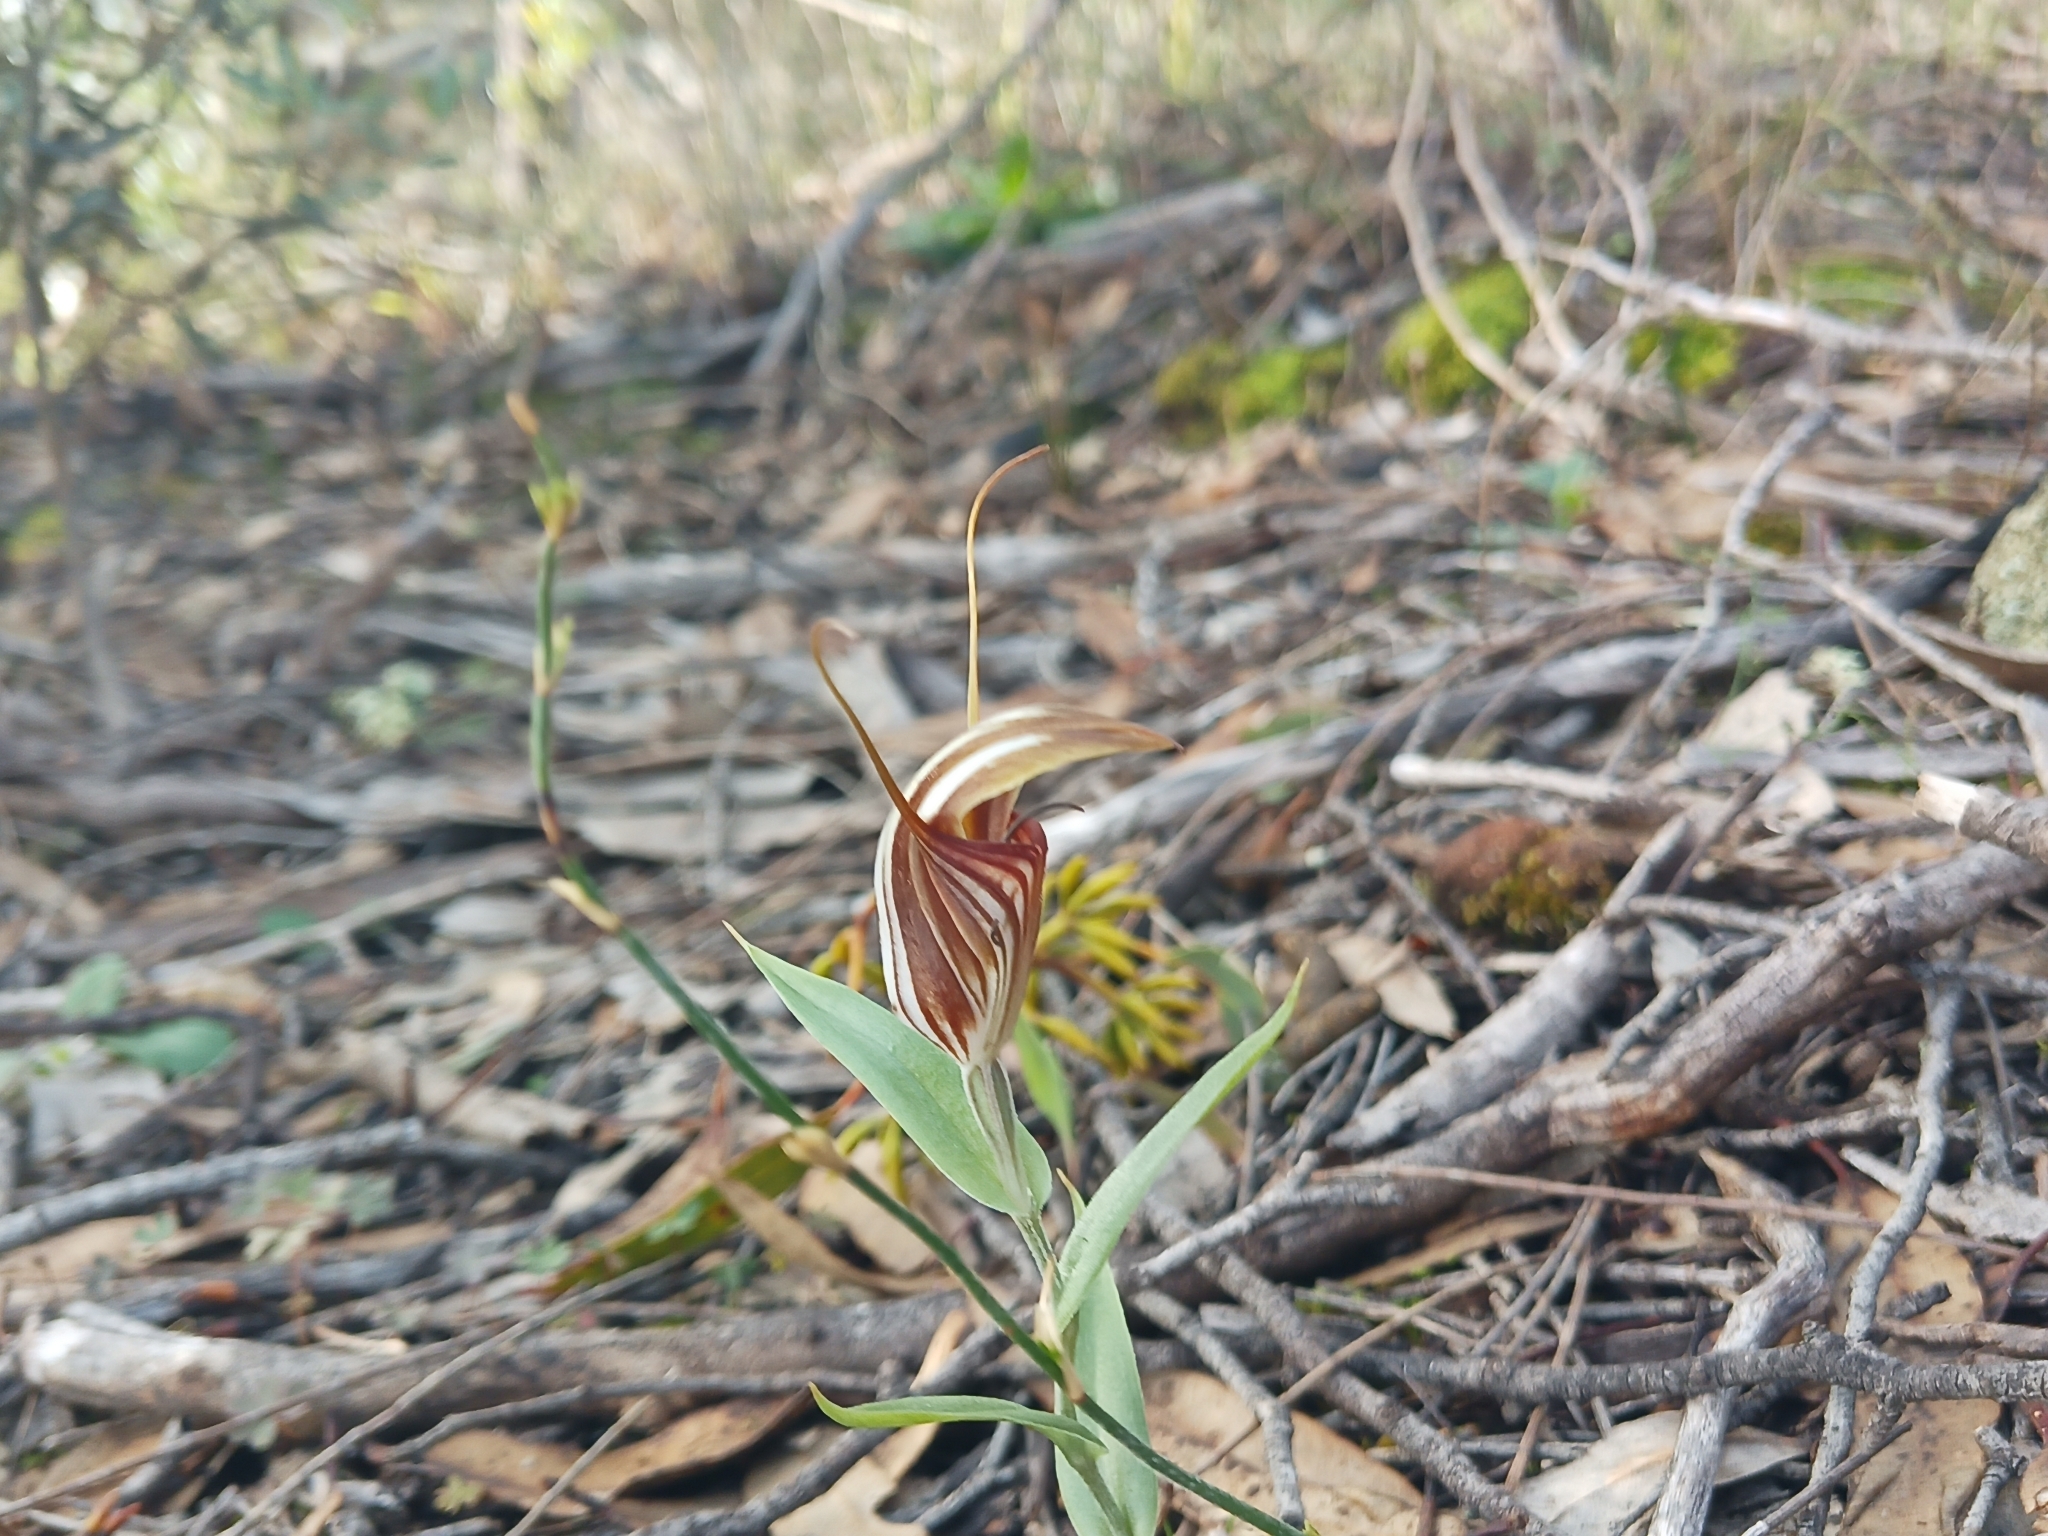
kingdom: Plantae
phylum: Tracheophyta
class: Liliopsida
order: Asparagales
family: Orchidaceae
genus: Pterostylis
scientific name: Pterostylis hamiltonii
